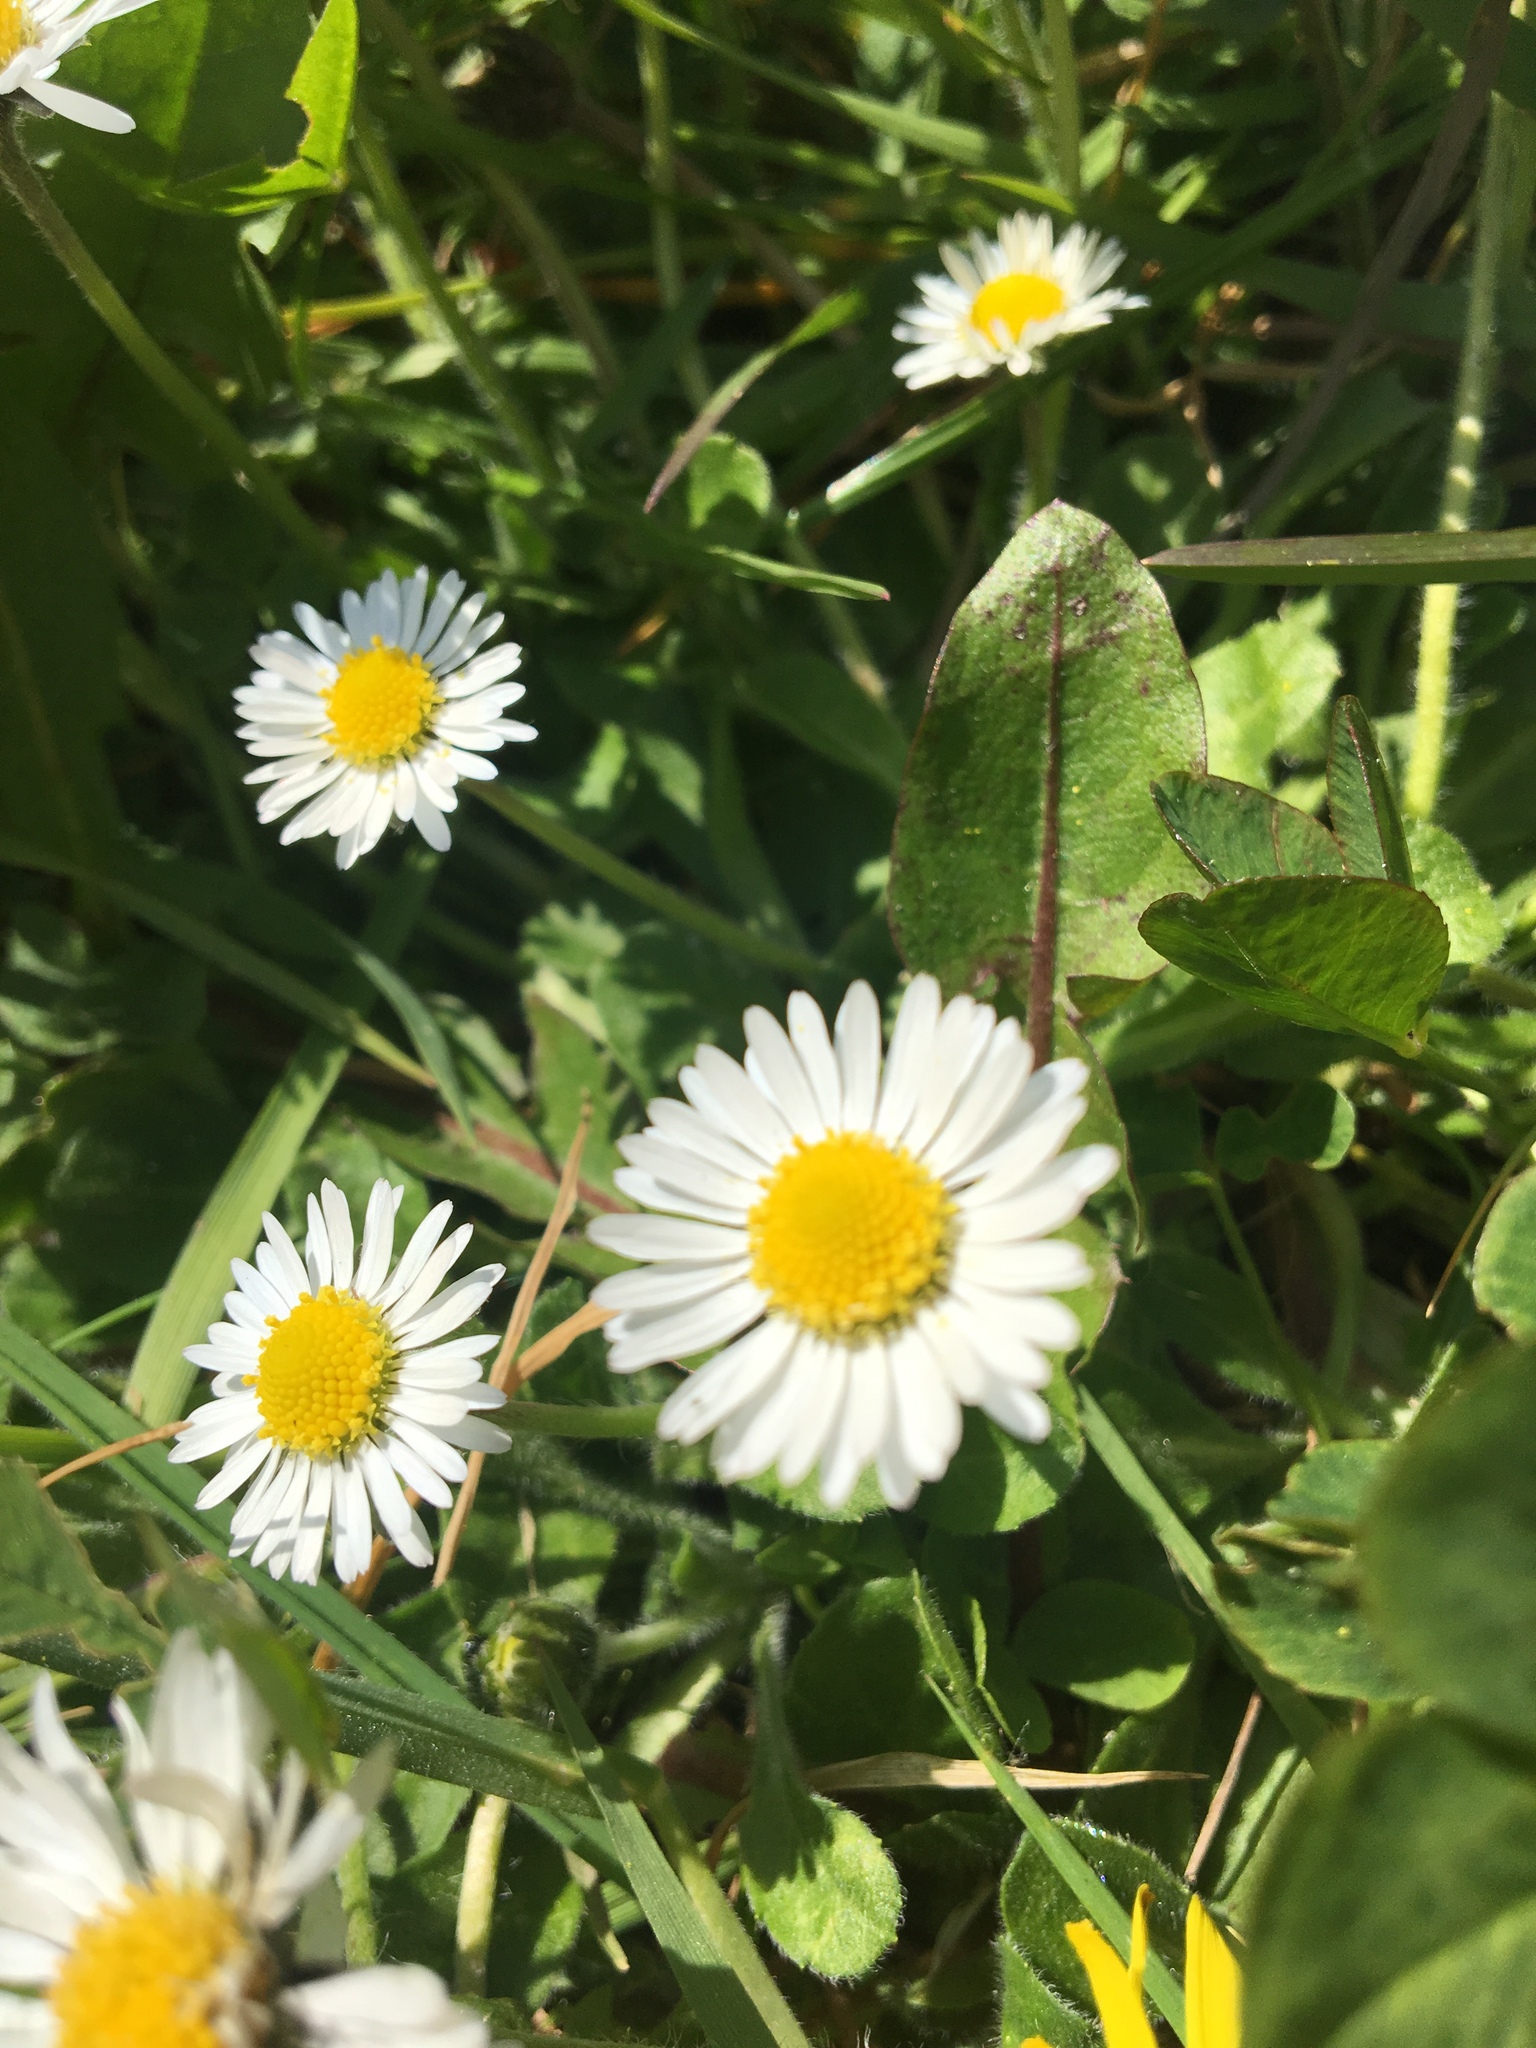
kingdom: Plantae
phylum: Tracheophyta
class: Magnoliopsida
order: Asterales
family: Asteraceae
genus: Bellis
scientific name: Bellis perennis
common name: Lawndaisy
